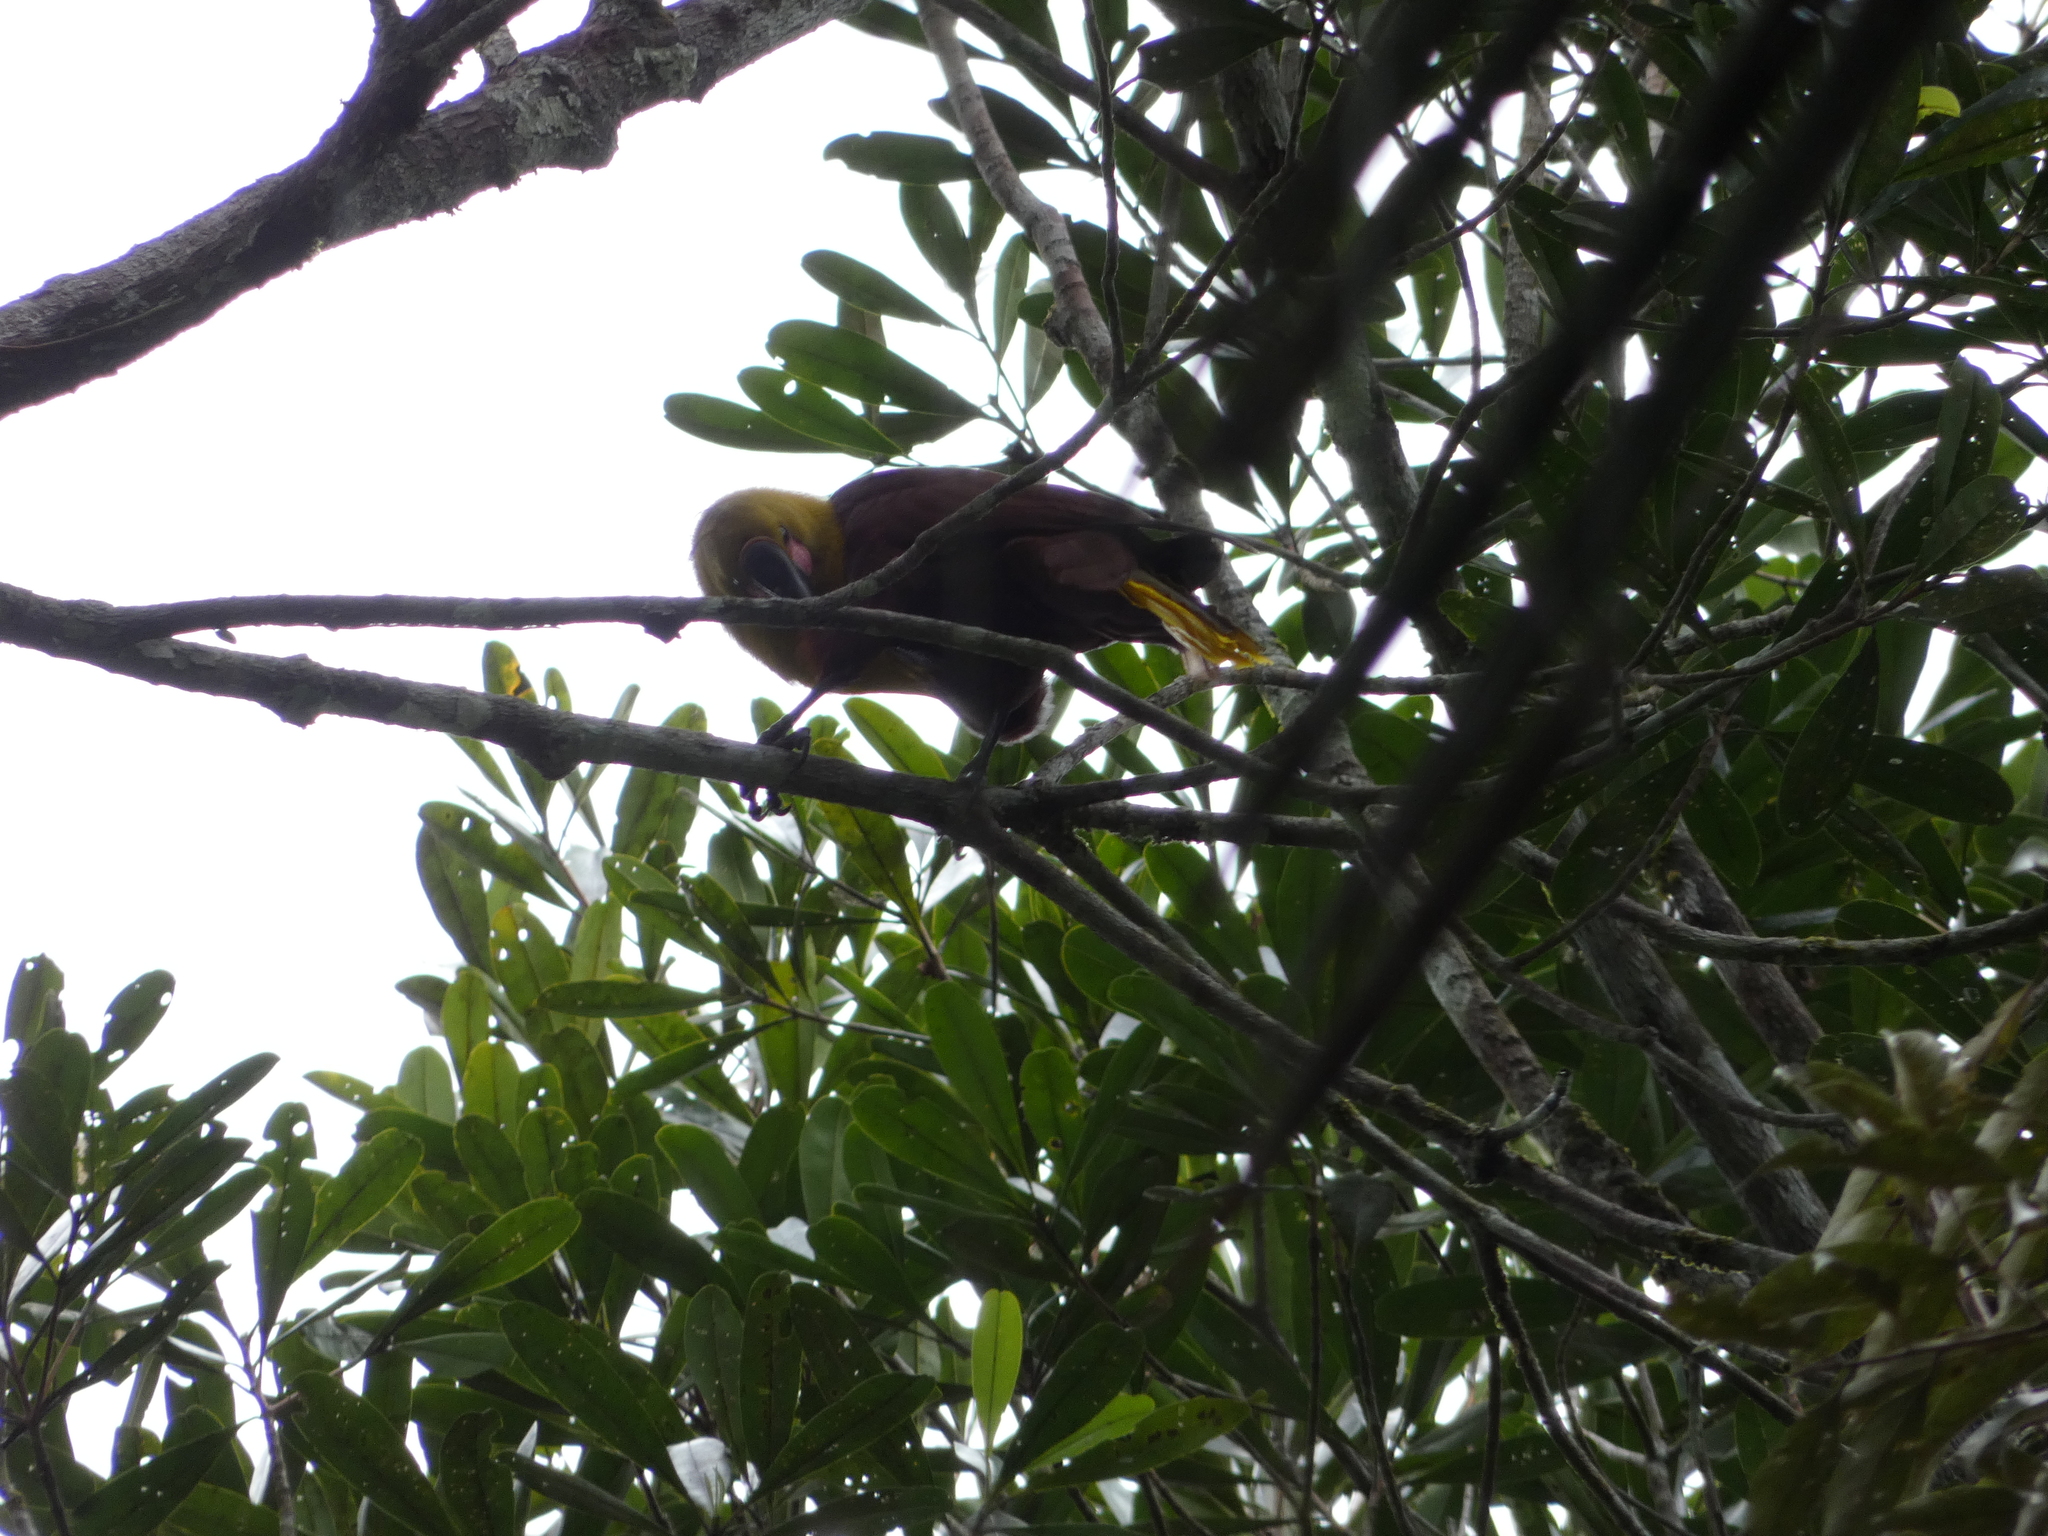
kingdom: Animalia
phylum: Chordata
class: Aves
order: Passeriformes
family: Icteridae
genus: Psarocolius
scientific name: Psarocolius bifasciatus
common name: Olive oropendola
